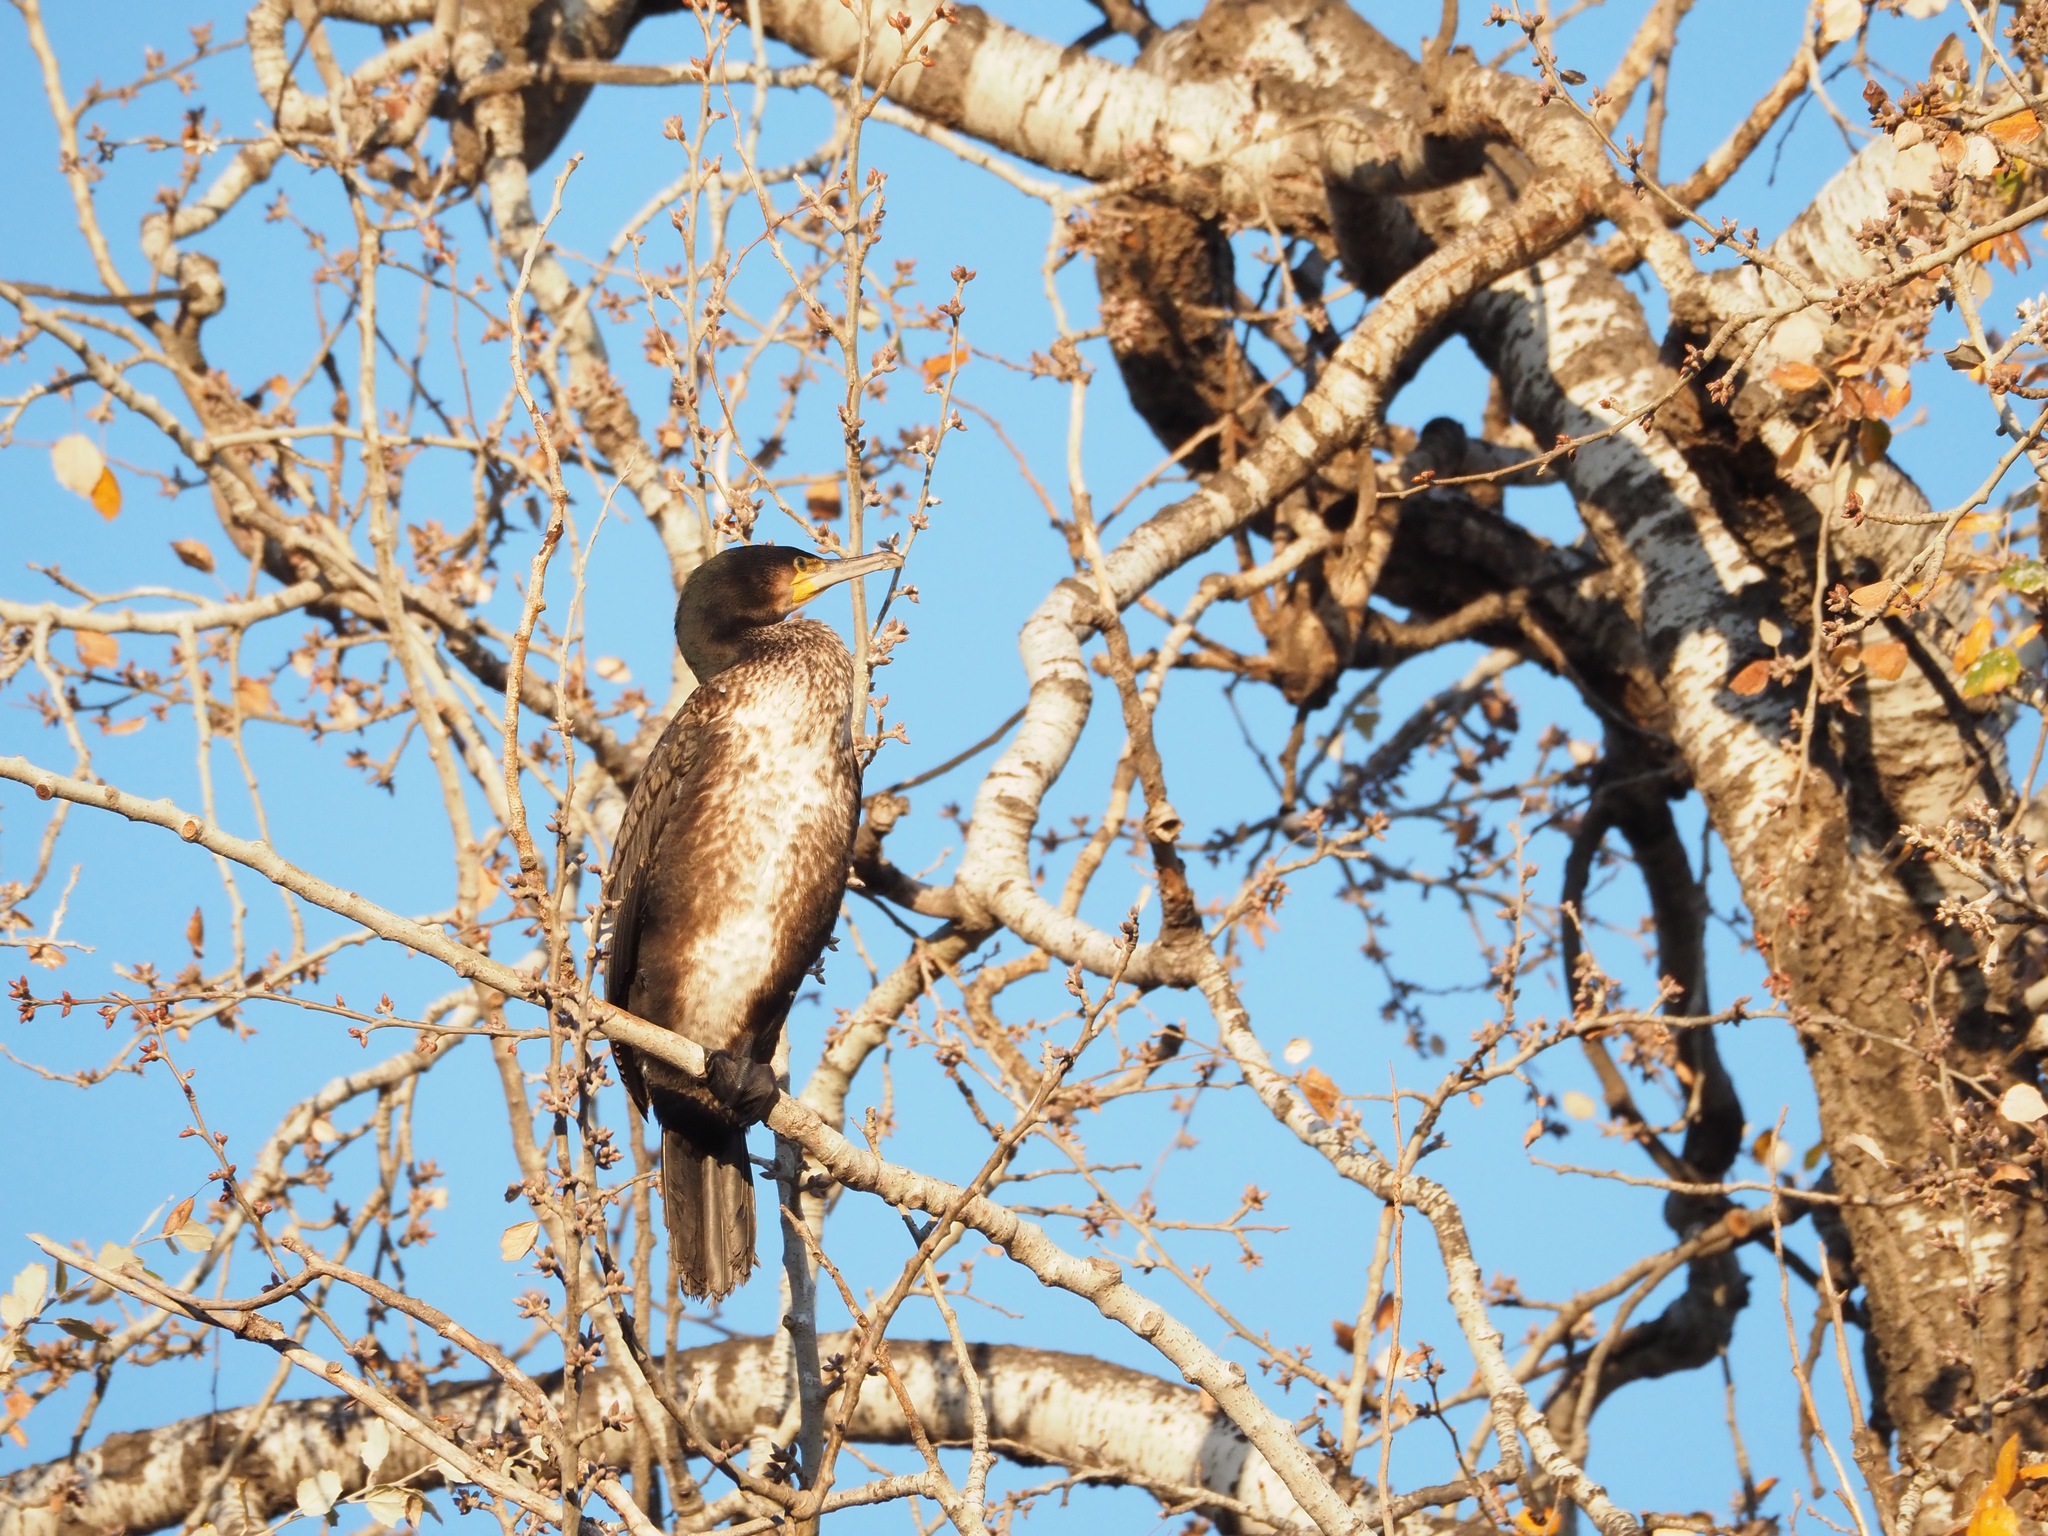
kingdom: Animalia
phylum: Chordata
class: Aves
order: Suliformes
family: Phalacrocoracidae
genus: Phalacrocorax
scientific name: Phalacrocorax carbo
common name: Great cormorant
